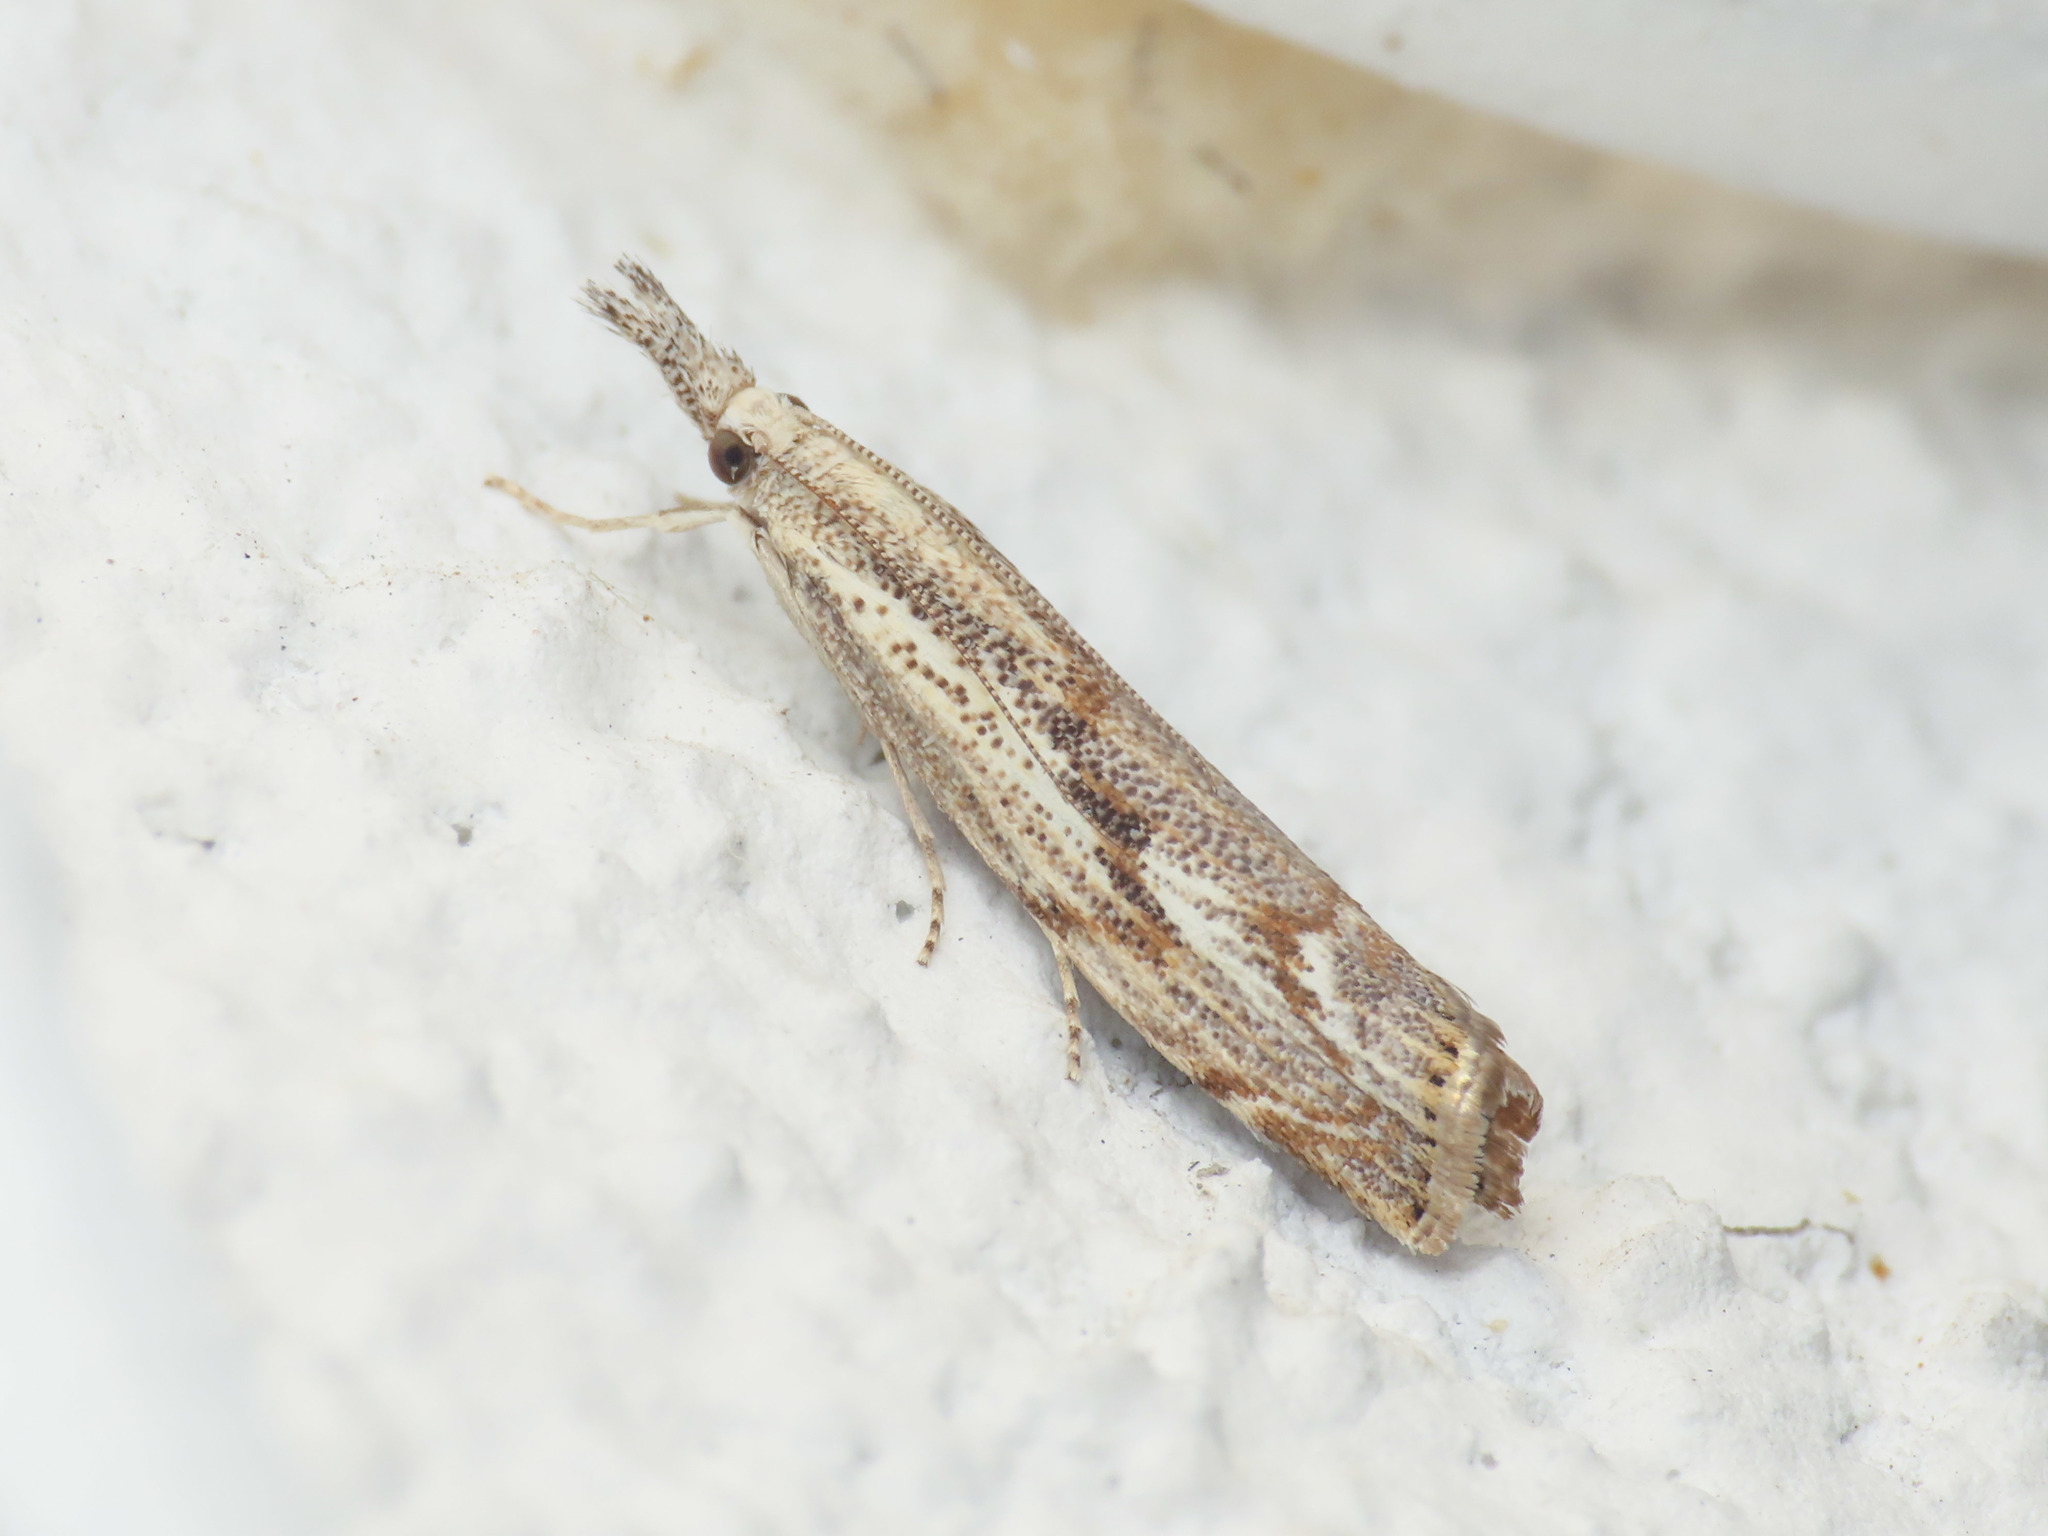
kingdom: Animalia
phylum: Arthropoda
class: Insecta
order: Lepidoptera
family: Crambidae
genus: Agriphila
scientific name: Agriphila geniculea
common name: Elbow-stripe grass-veneer
